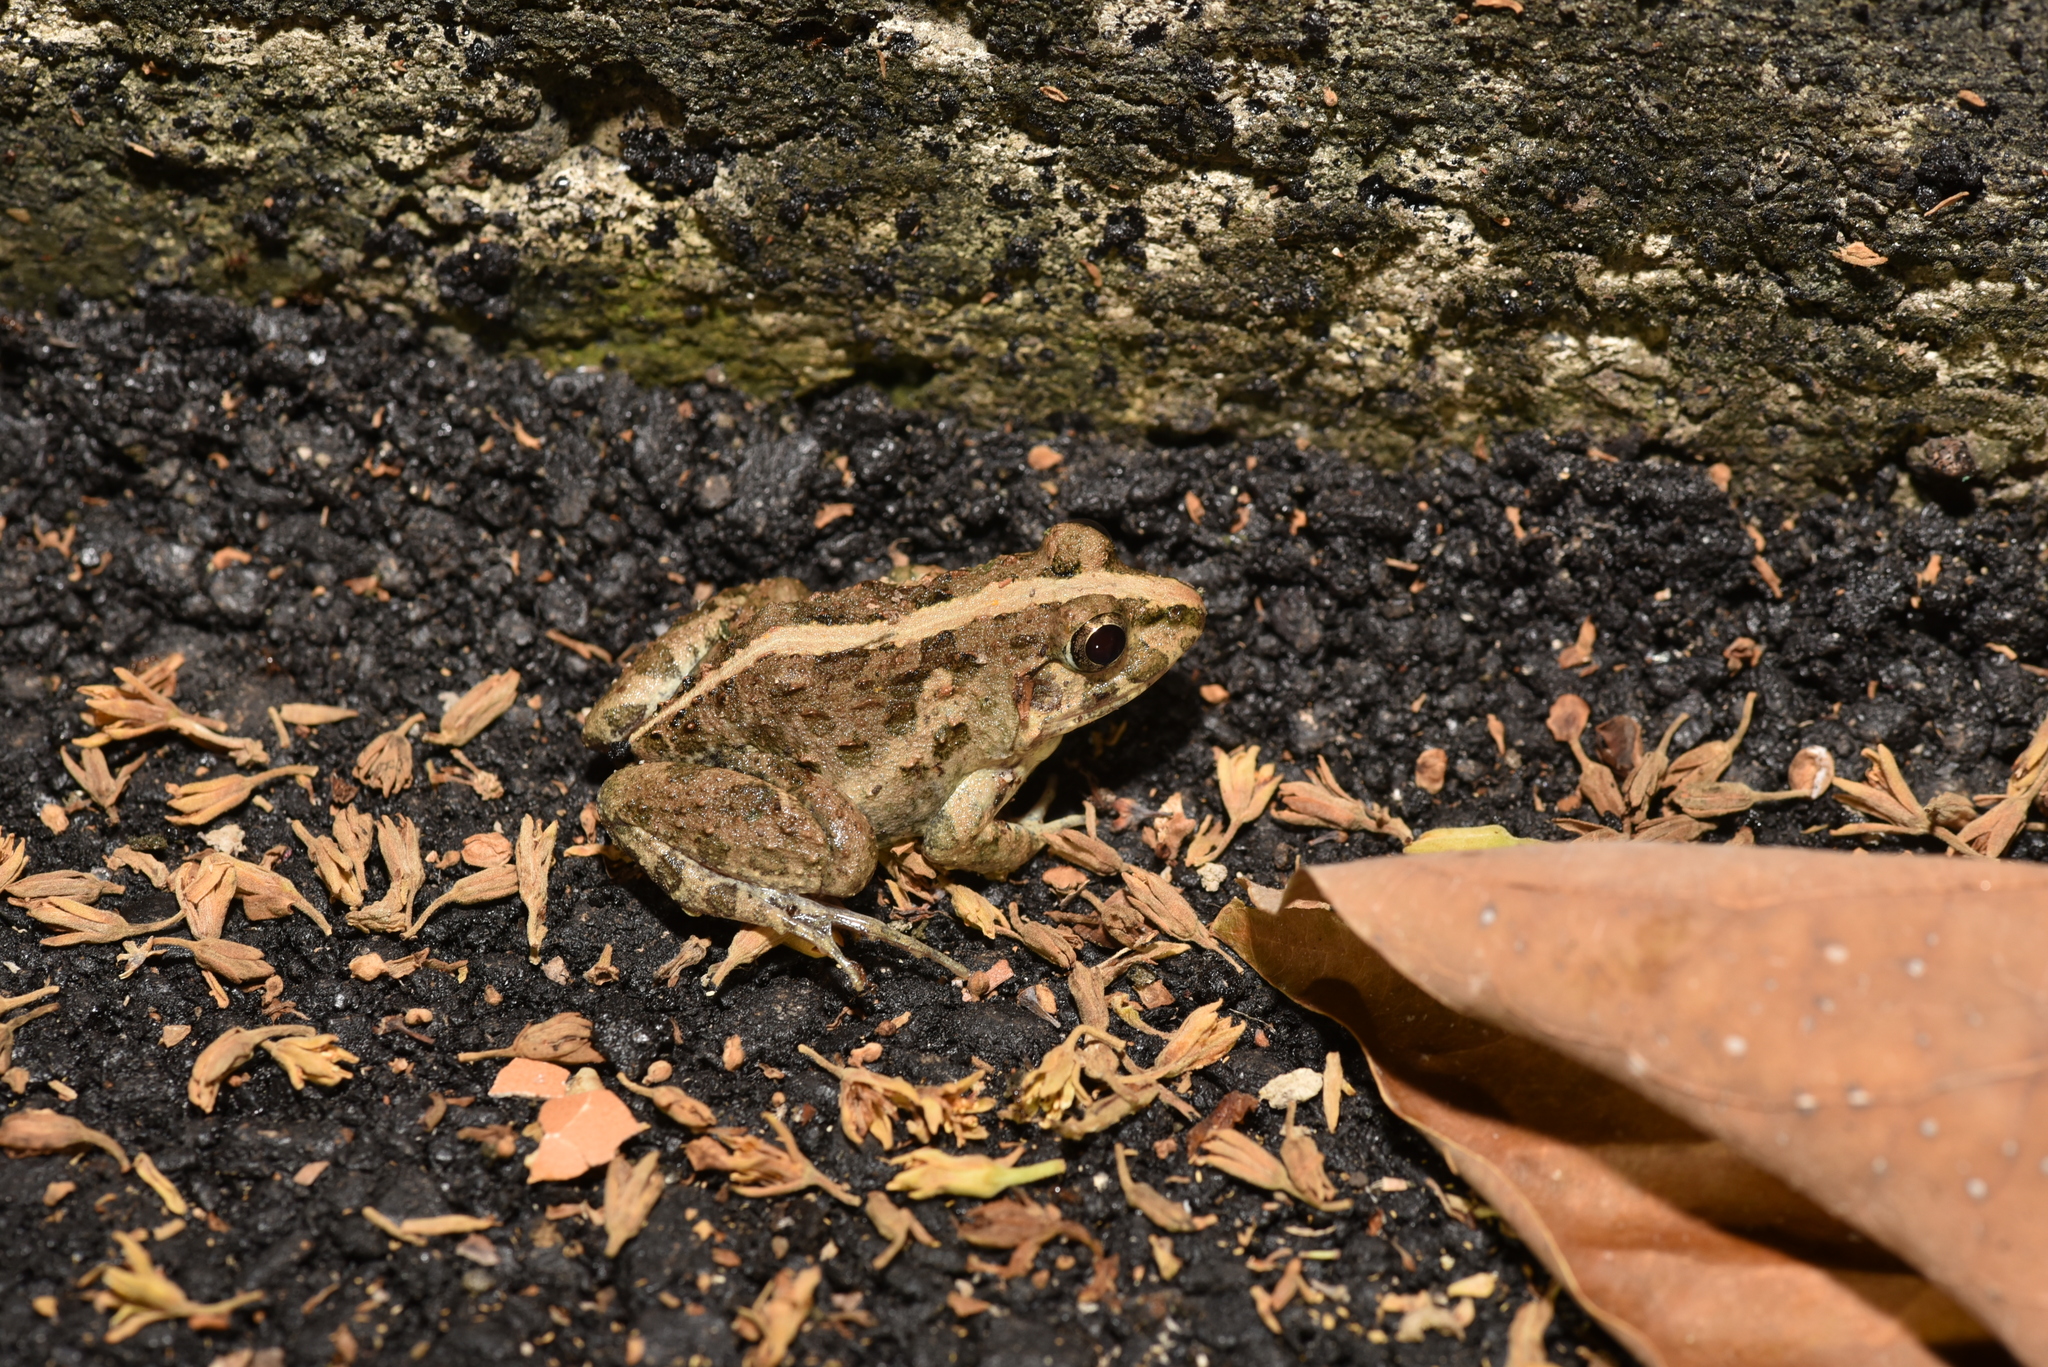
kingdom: Animalia
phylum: Chordata
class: Amphibia
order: Anura
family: Dicroglossidae
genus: Fejervarya
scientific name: Fejervarya limnocharis
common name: Asian grass frog/common pond frog/field frog/grass frog/indian rice frog
